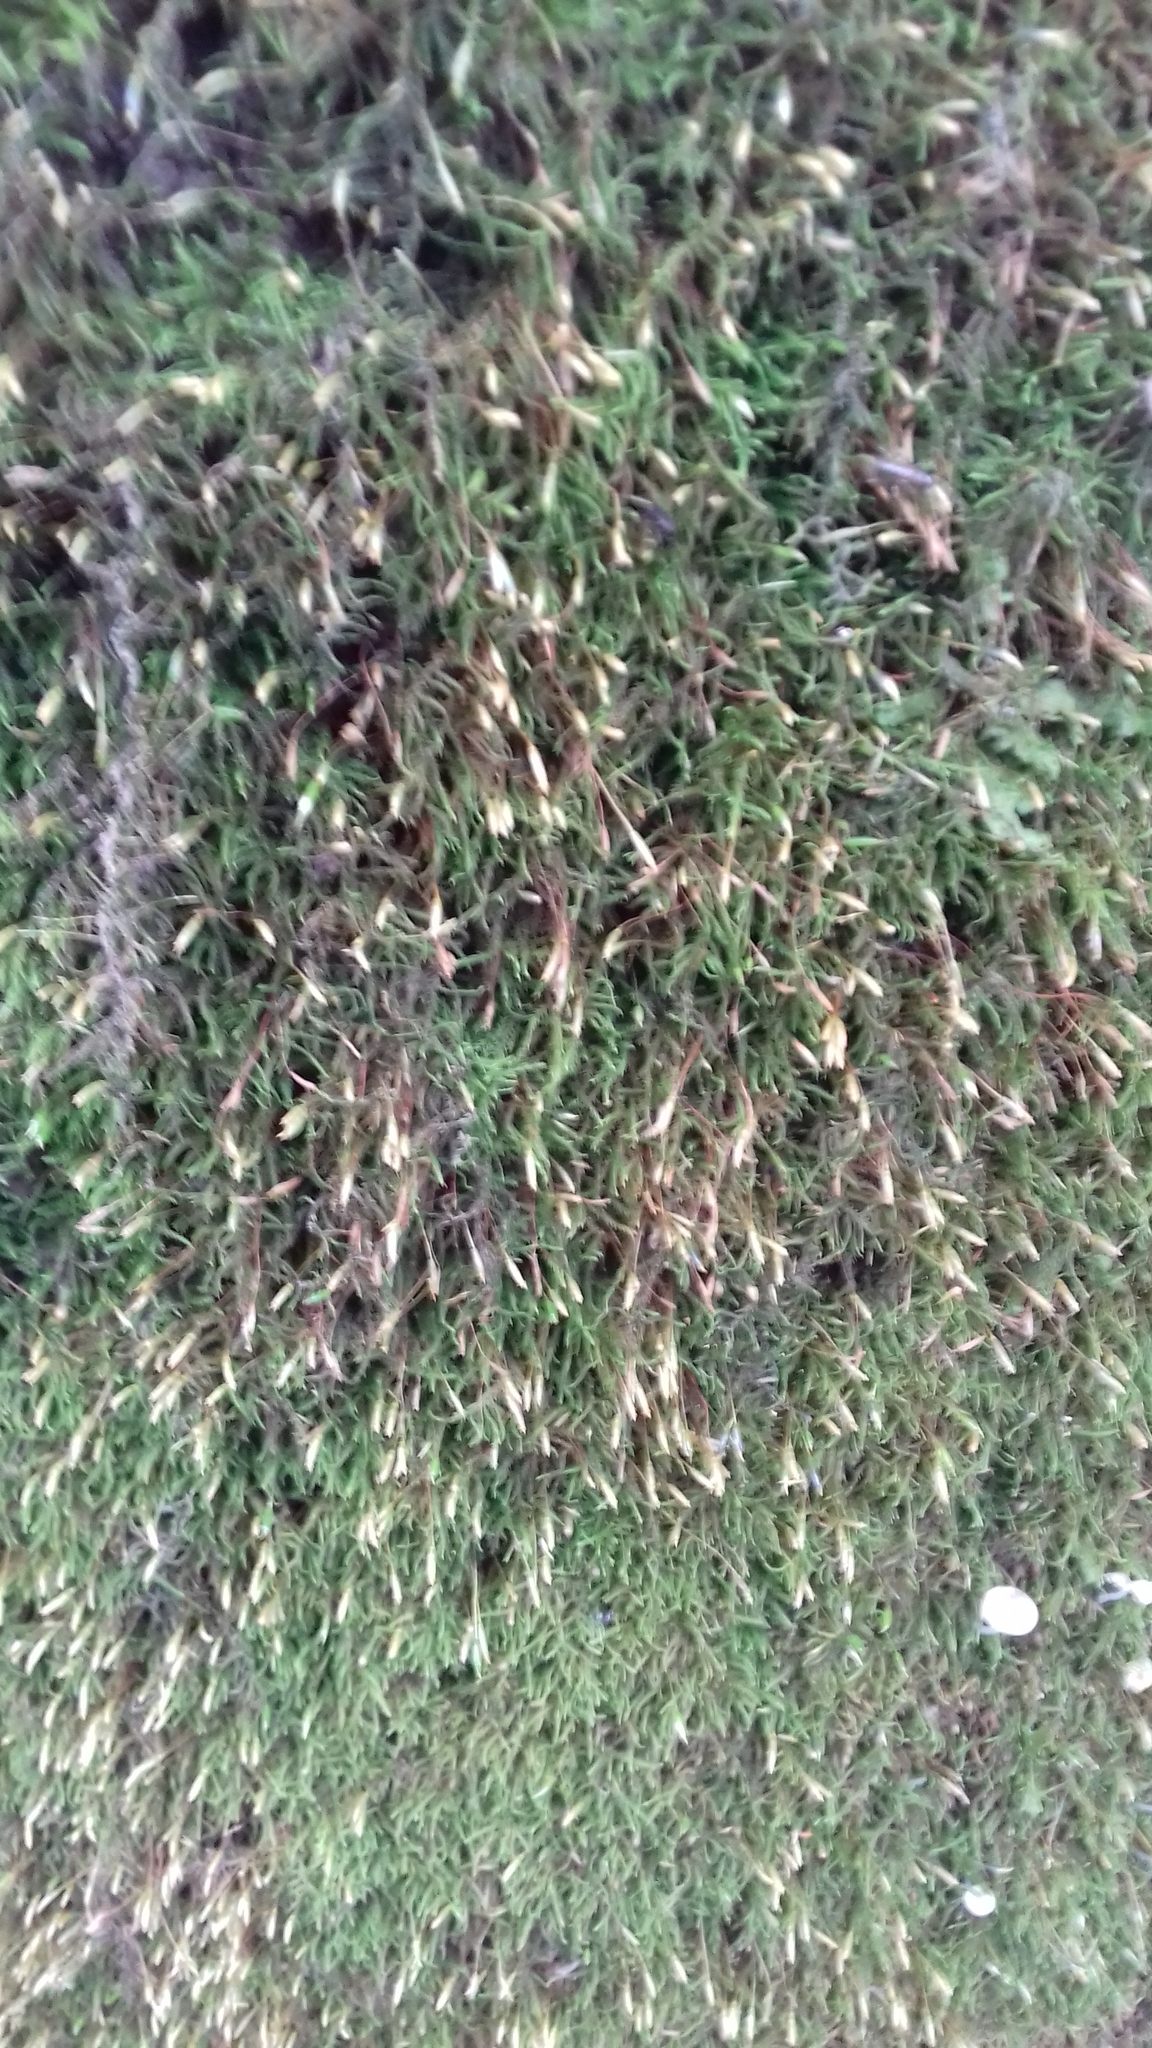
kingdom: Plantae
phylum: Bryophyta
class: Bryopsida
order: Hypnales
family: Leskeaceae
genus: Leskea
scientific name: Leskea polycarpa
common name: Many-fruited leske's moss
